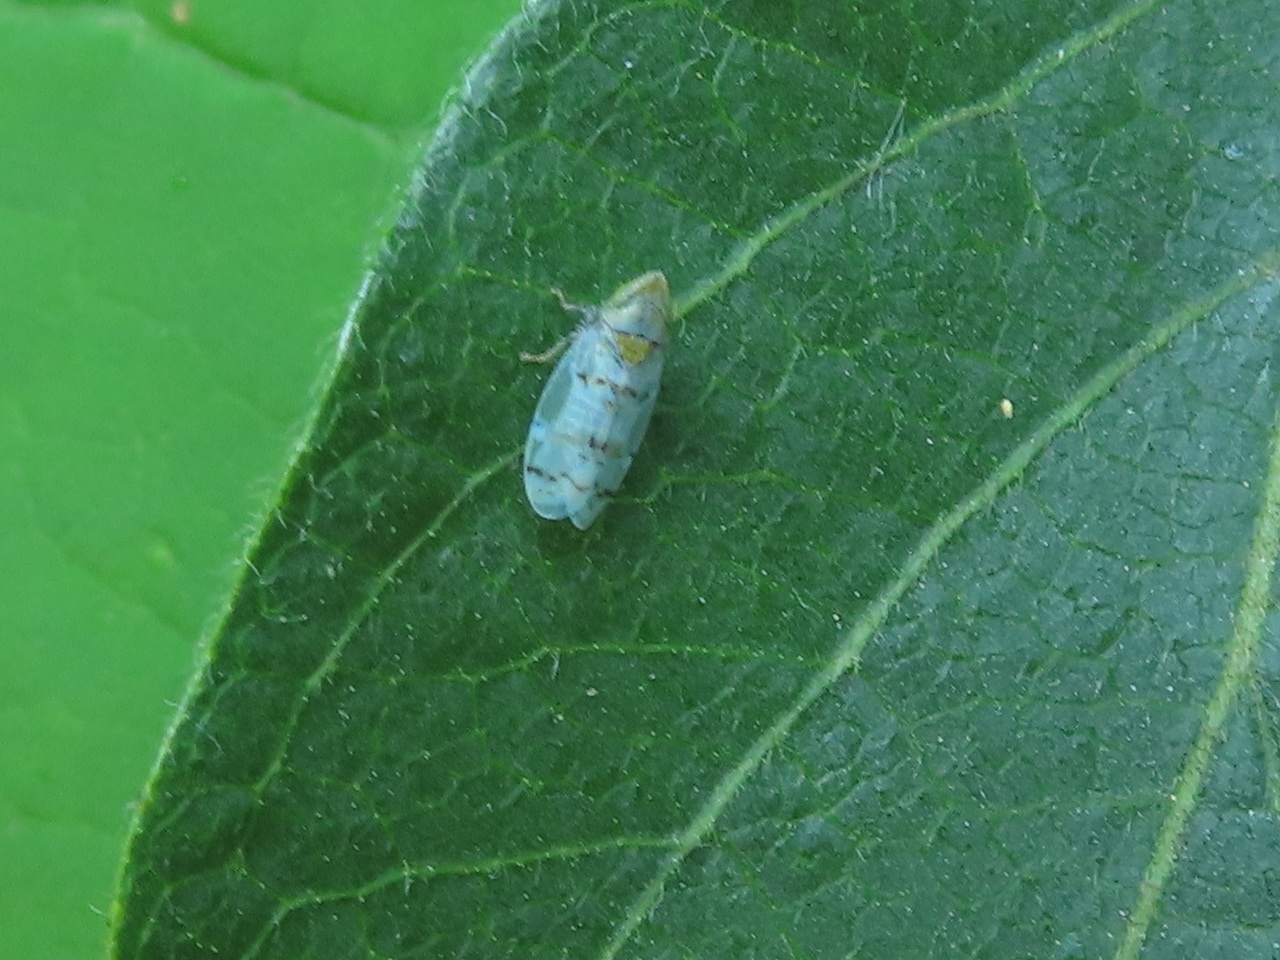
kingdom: Animalia
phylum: Arthropoda
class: Insecta
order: Hemiptera
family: Cicadellidae
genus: Japananus
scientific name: Japananus hyalinus
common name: The japanese maple leafhopper
